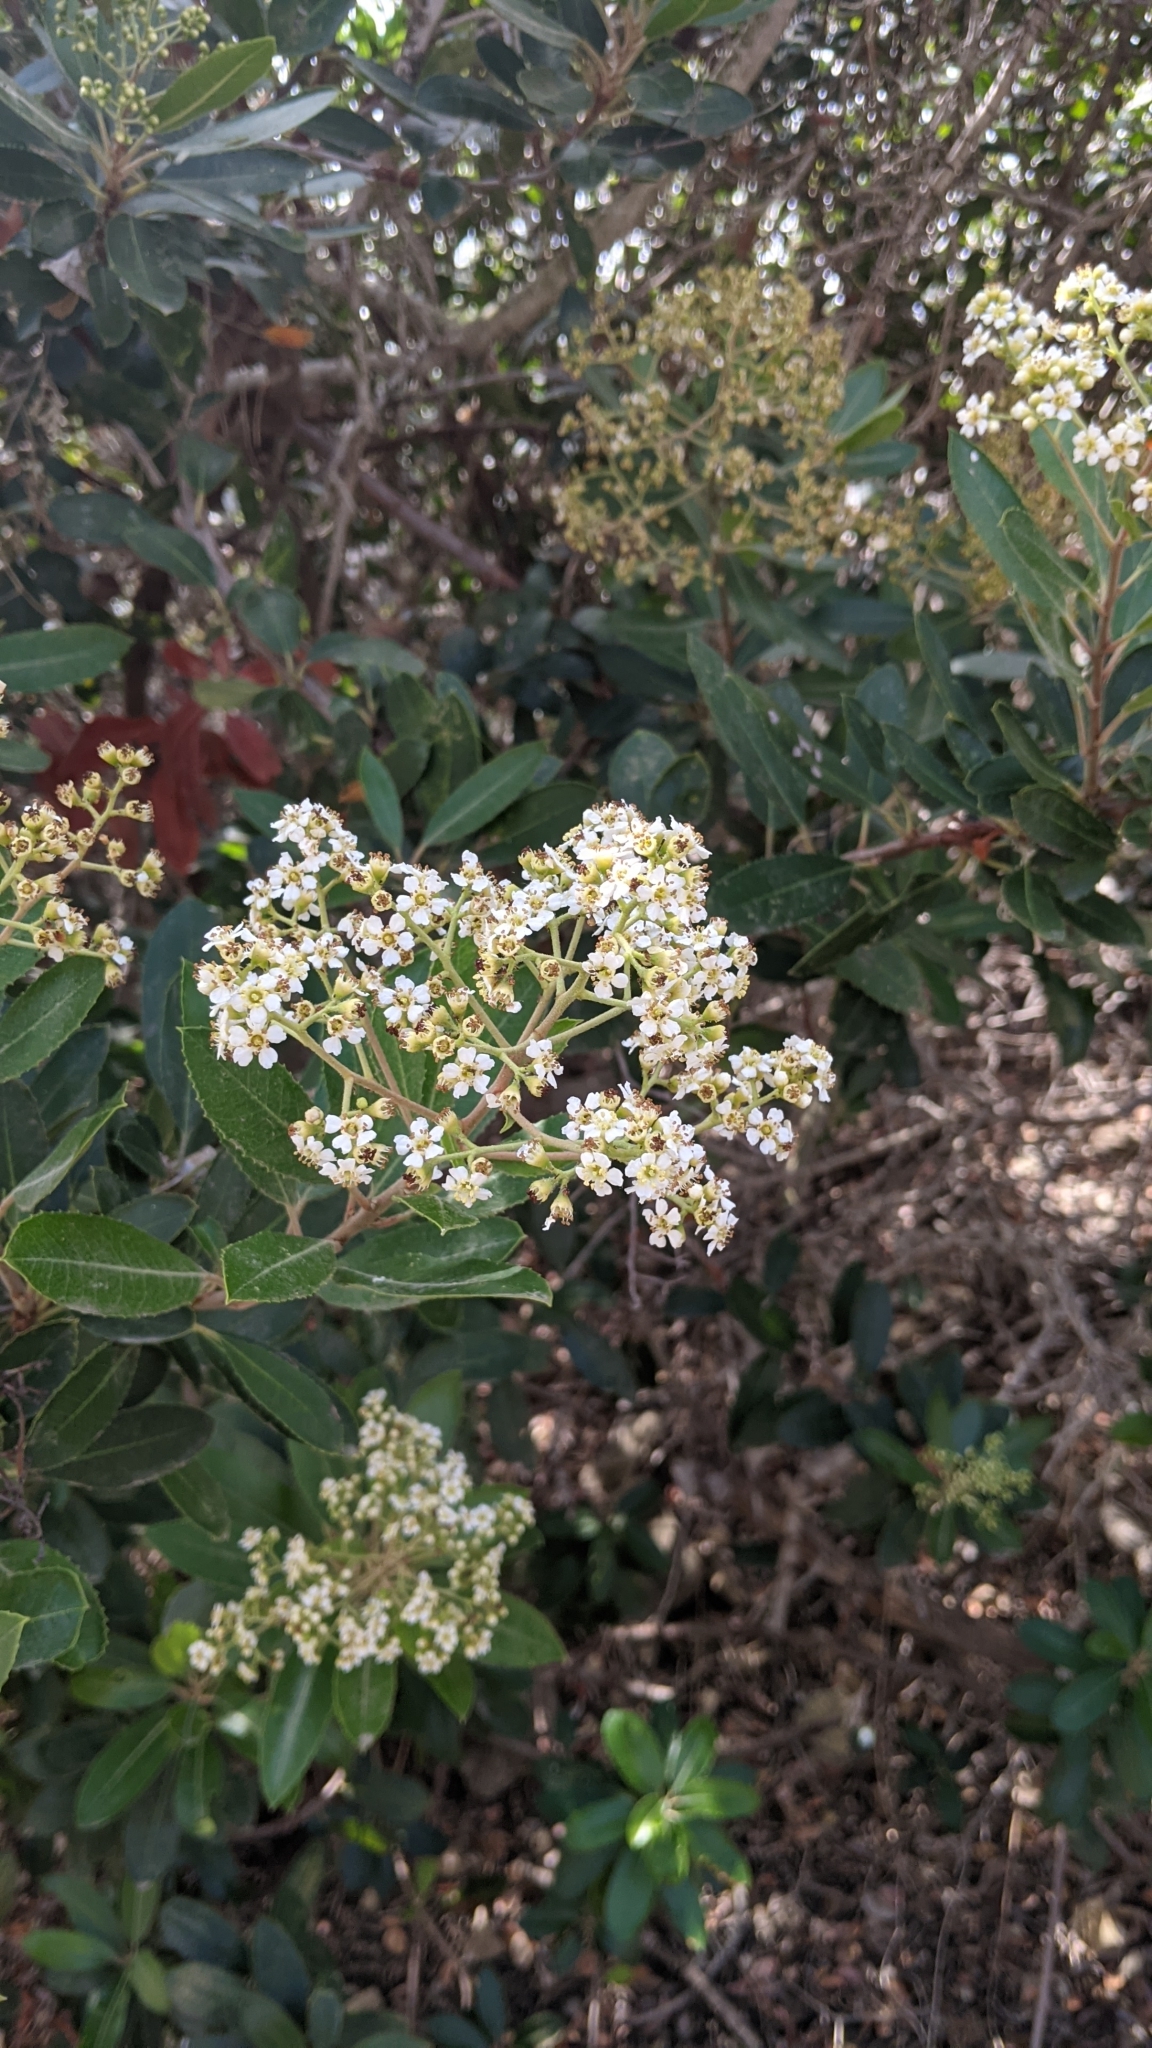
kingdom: Plantae
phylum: Tracheophyta
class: Magnoliopsida
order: Rosales
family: Rosaceae
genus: Heteromeles
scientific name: Heteromeles arbutifolia
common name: California-holly
